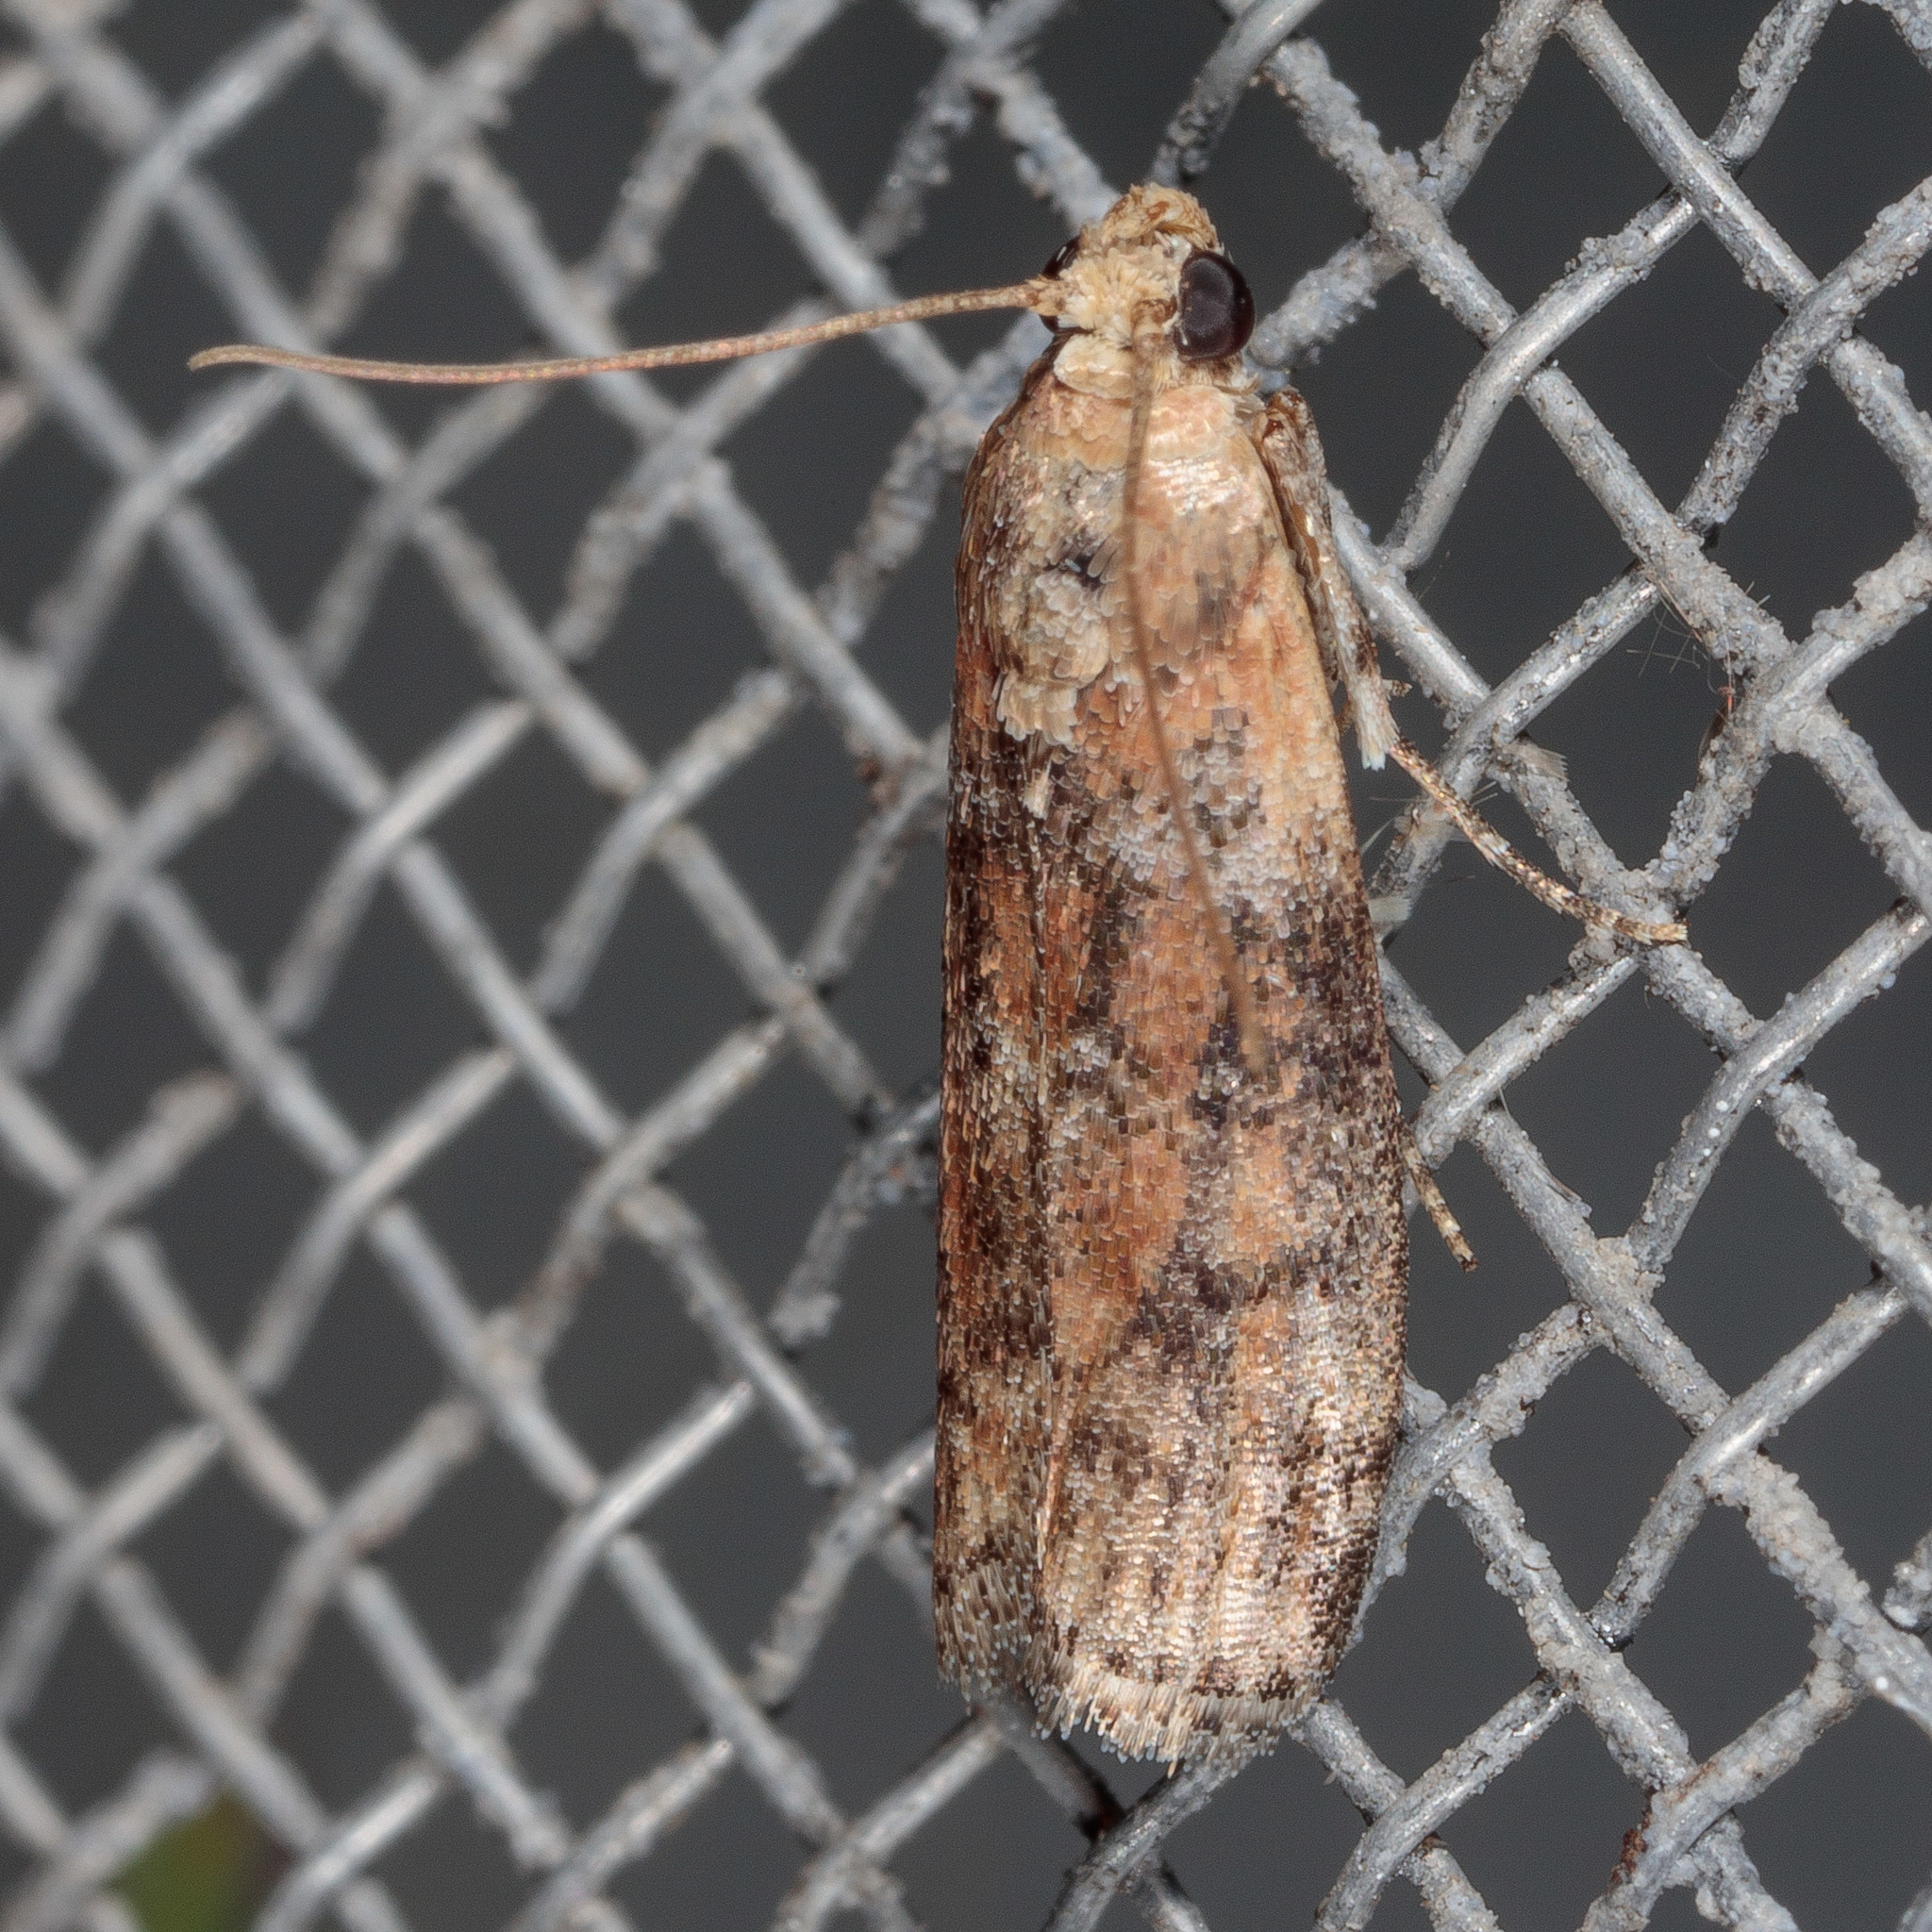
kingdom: Animalia
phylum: Arthropoda
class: Insecta
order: Lepidoptera
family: Pyralidae
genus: Sciota
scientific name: Sciota
